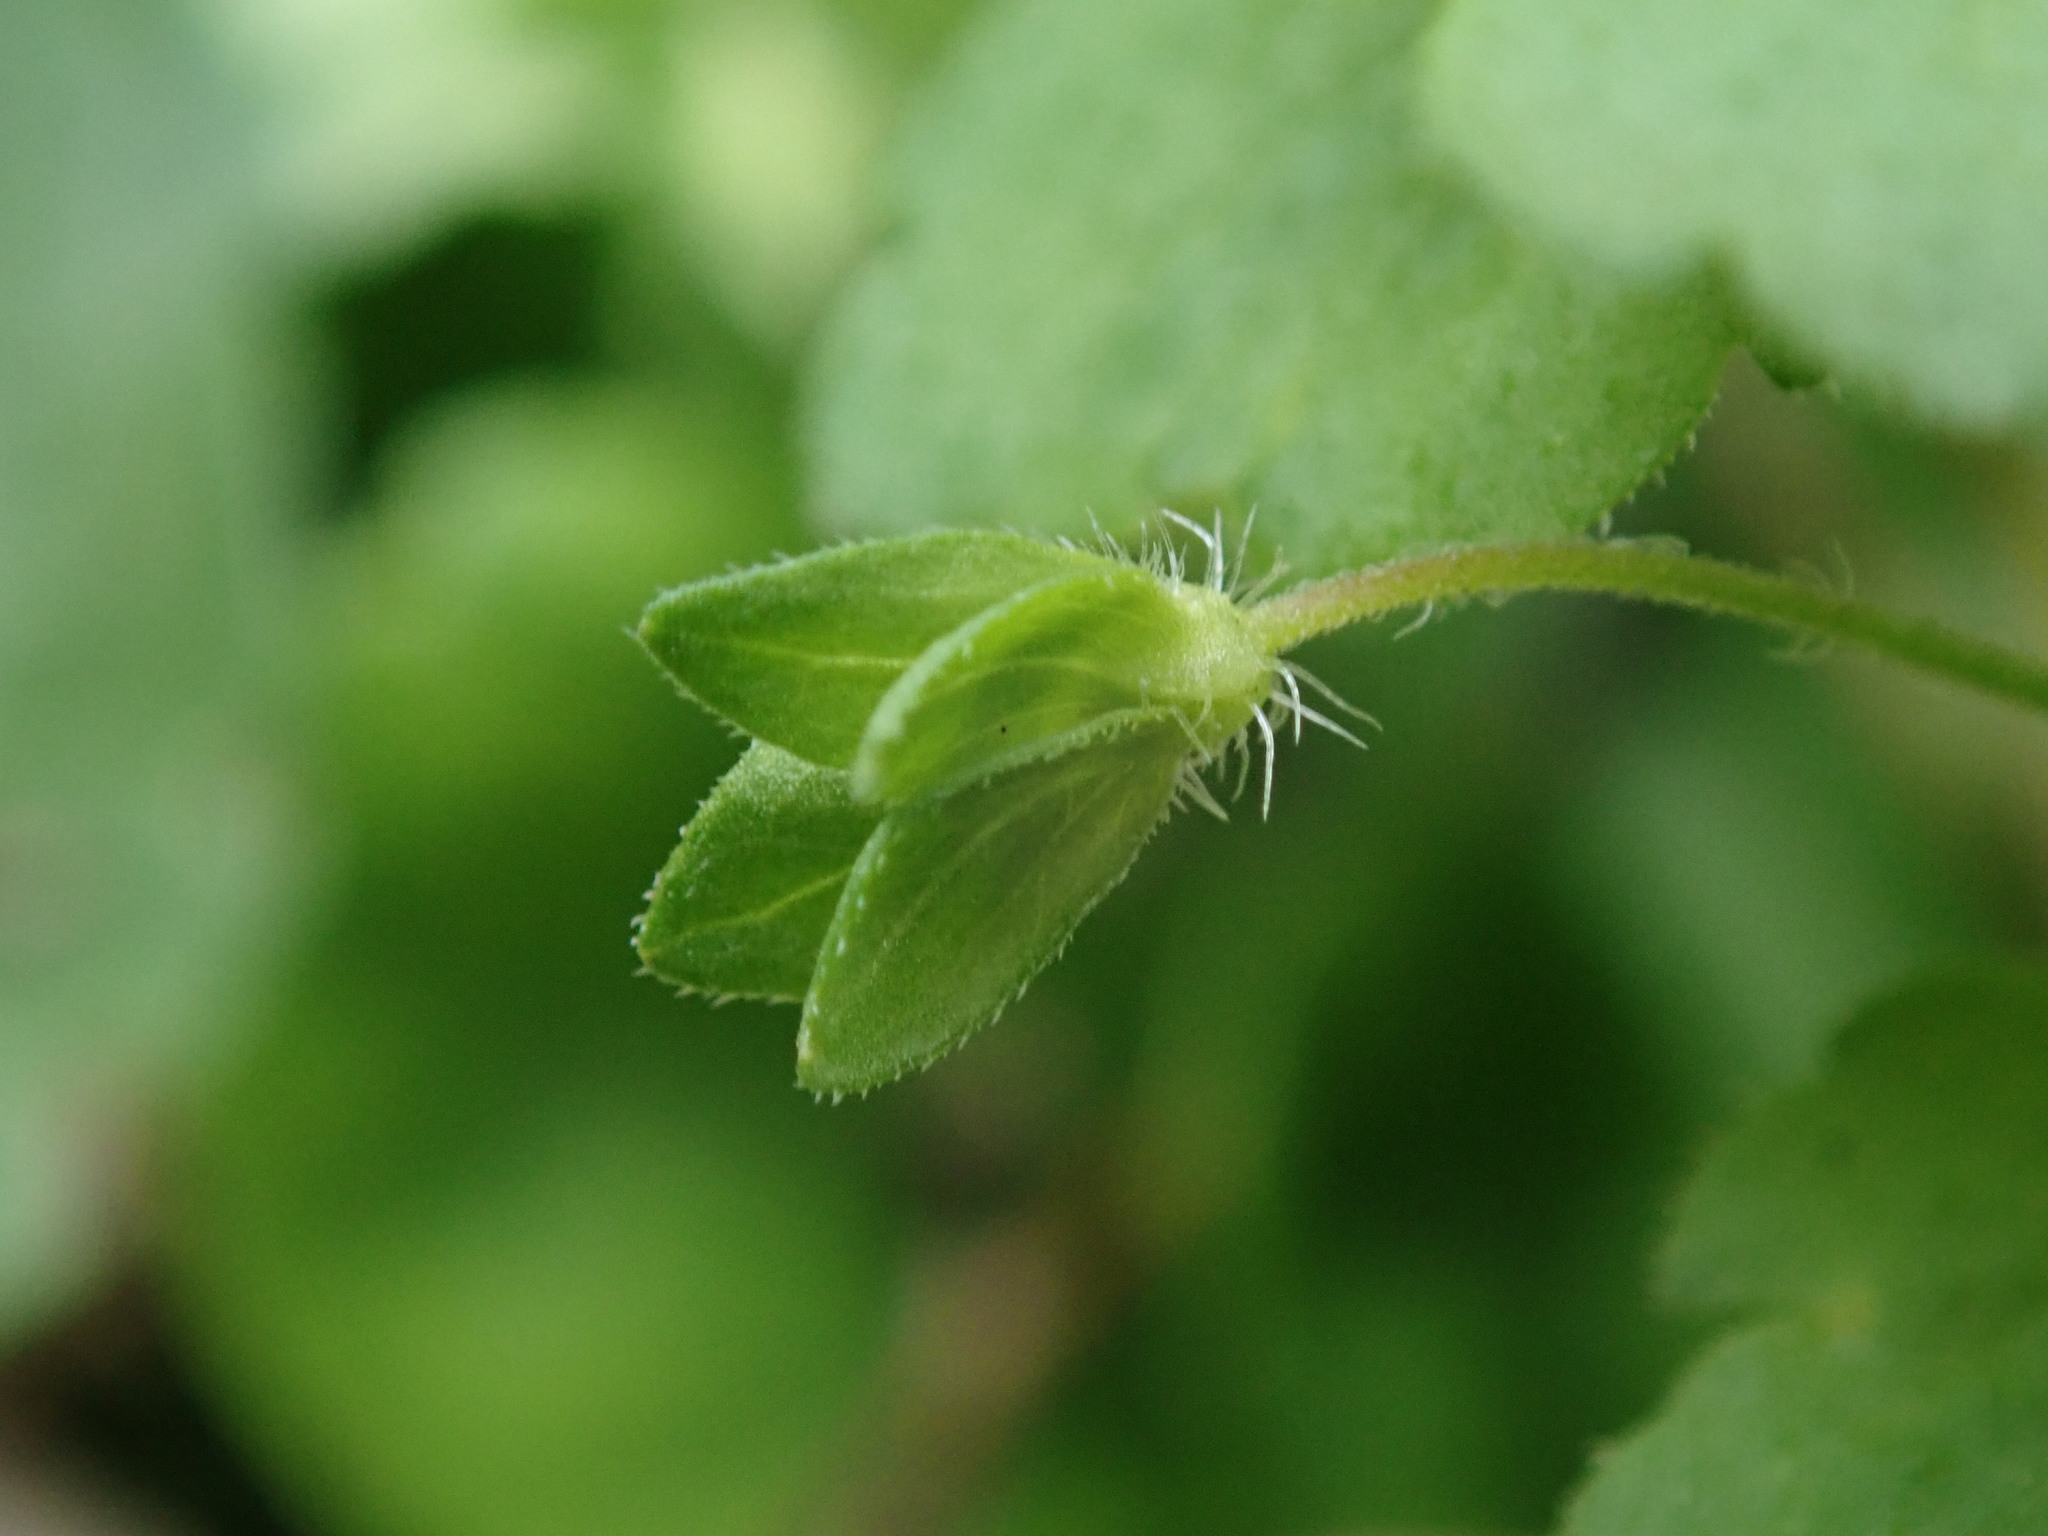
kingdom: Plantae
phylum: Tracheophyta
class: Magnoliopsida
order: Lamiales
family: Plantaginaceae
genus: Veronica
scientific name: Veronica persica
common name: Common field-speedwell
